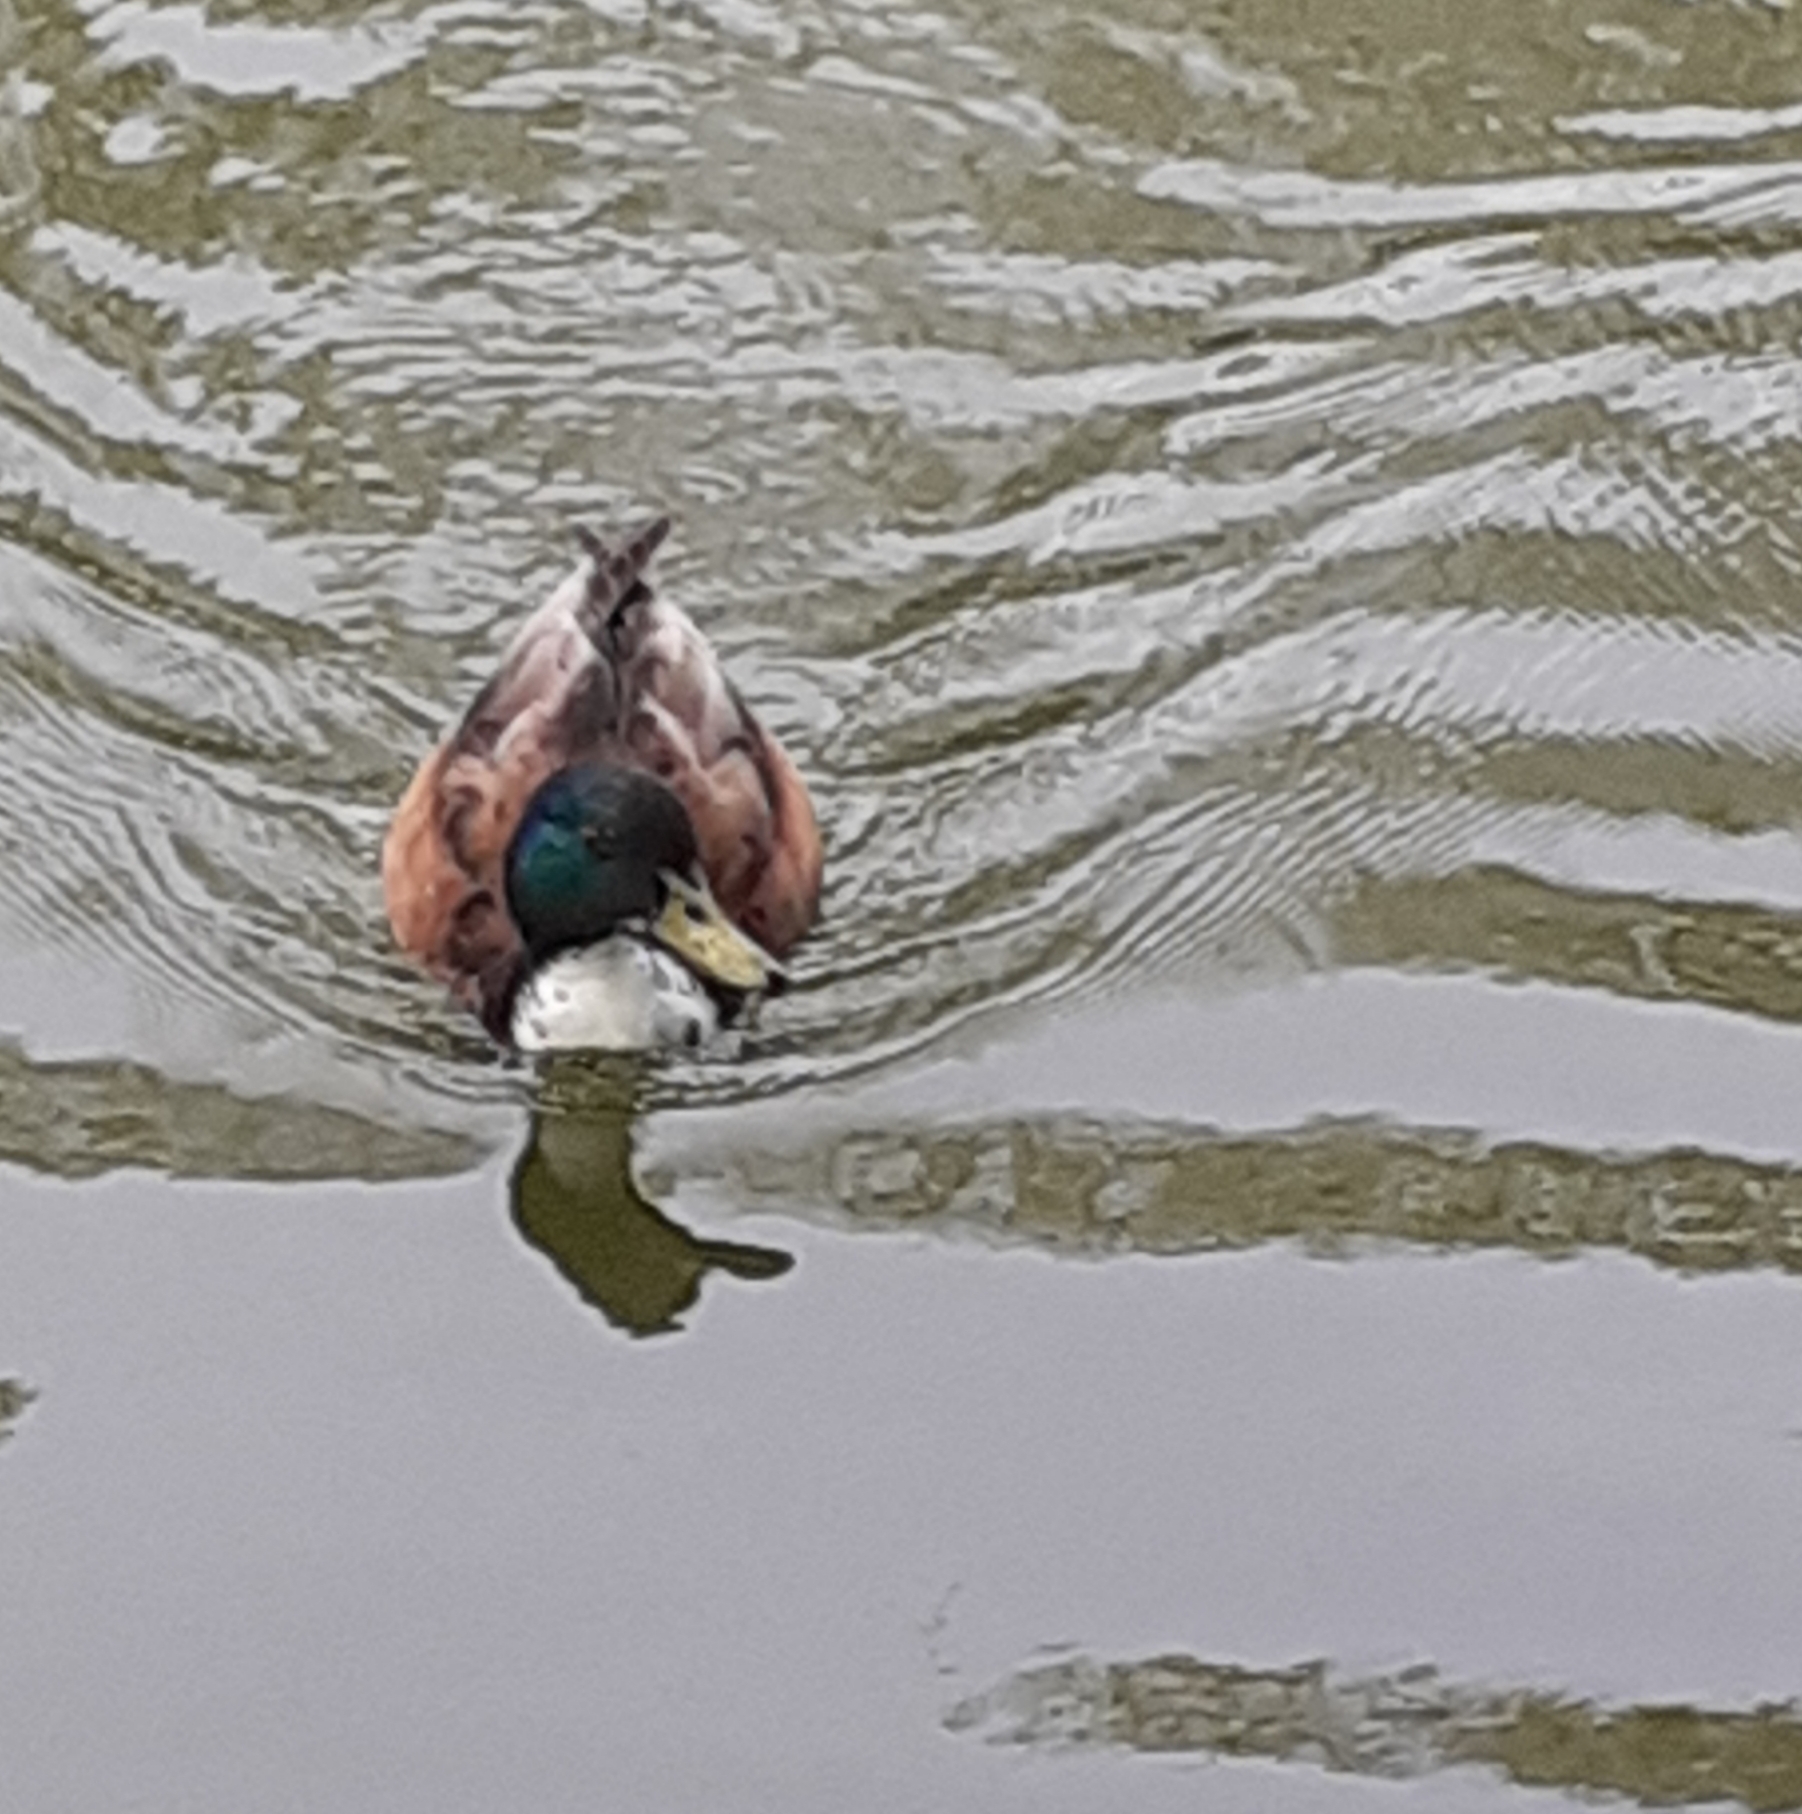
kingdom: Animalia
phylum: Chordata
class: Aves
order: Anseriformes
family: Anatidae
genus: Anas
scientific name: Anas platyrhynchos
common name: Mallard
